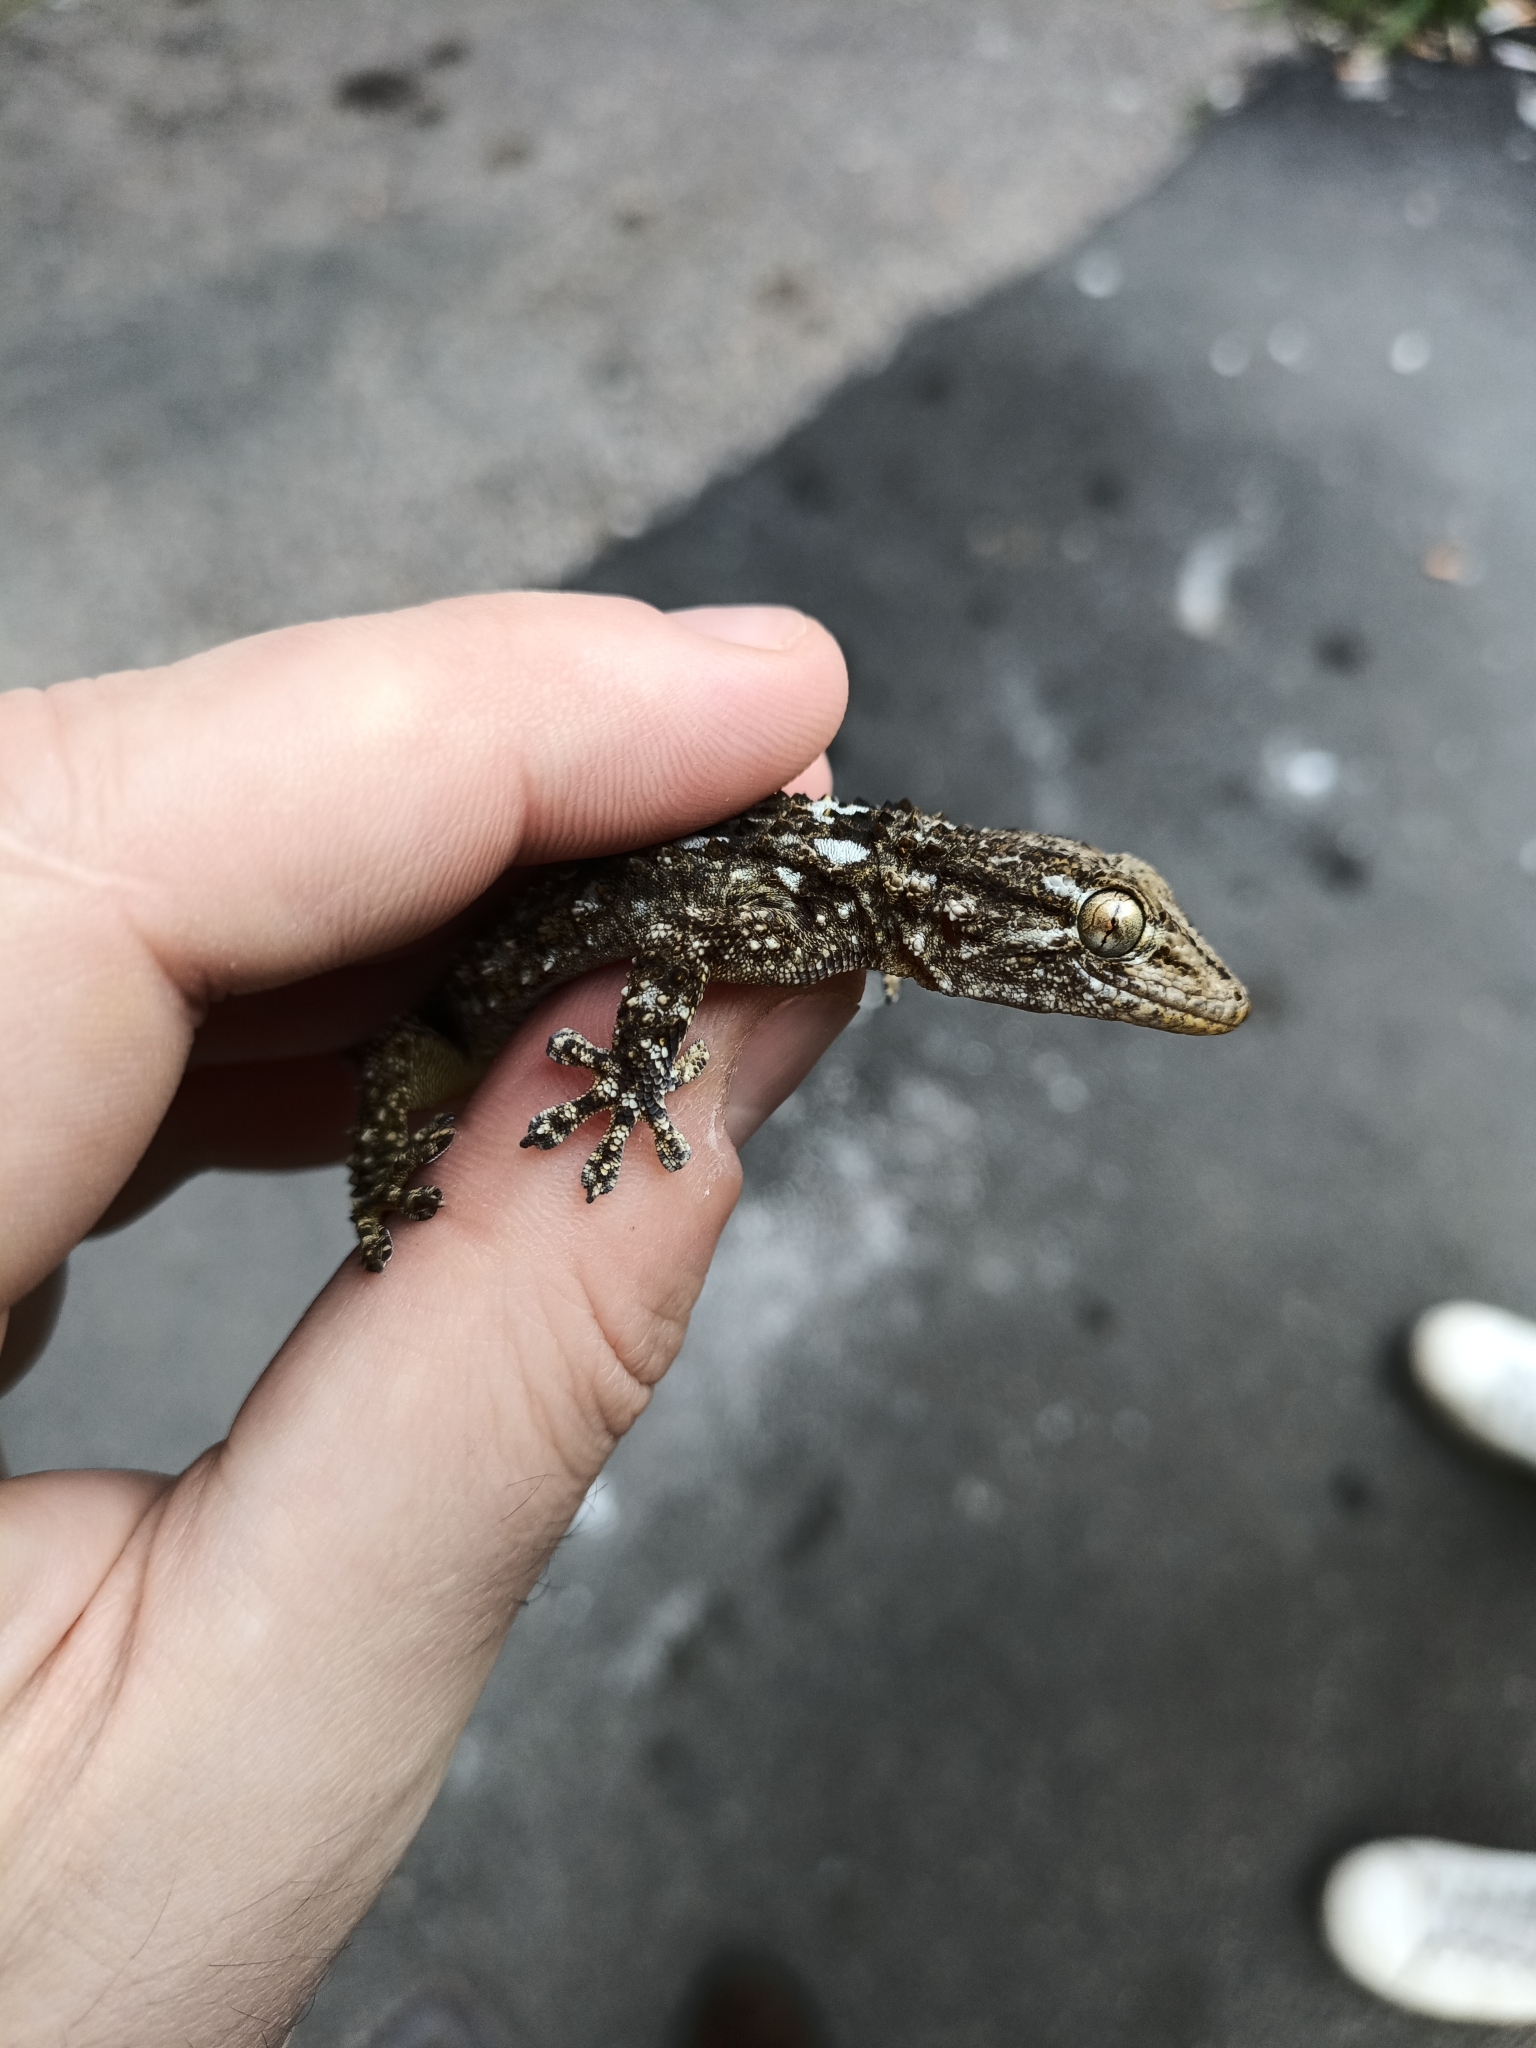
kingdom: Animalia
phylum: Chordata
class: Squamata
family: Phyllodactylidae
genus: Tarentola
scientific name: Tarentola mauritanica
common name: Moorish gecko
